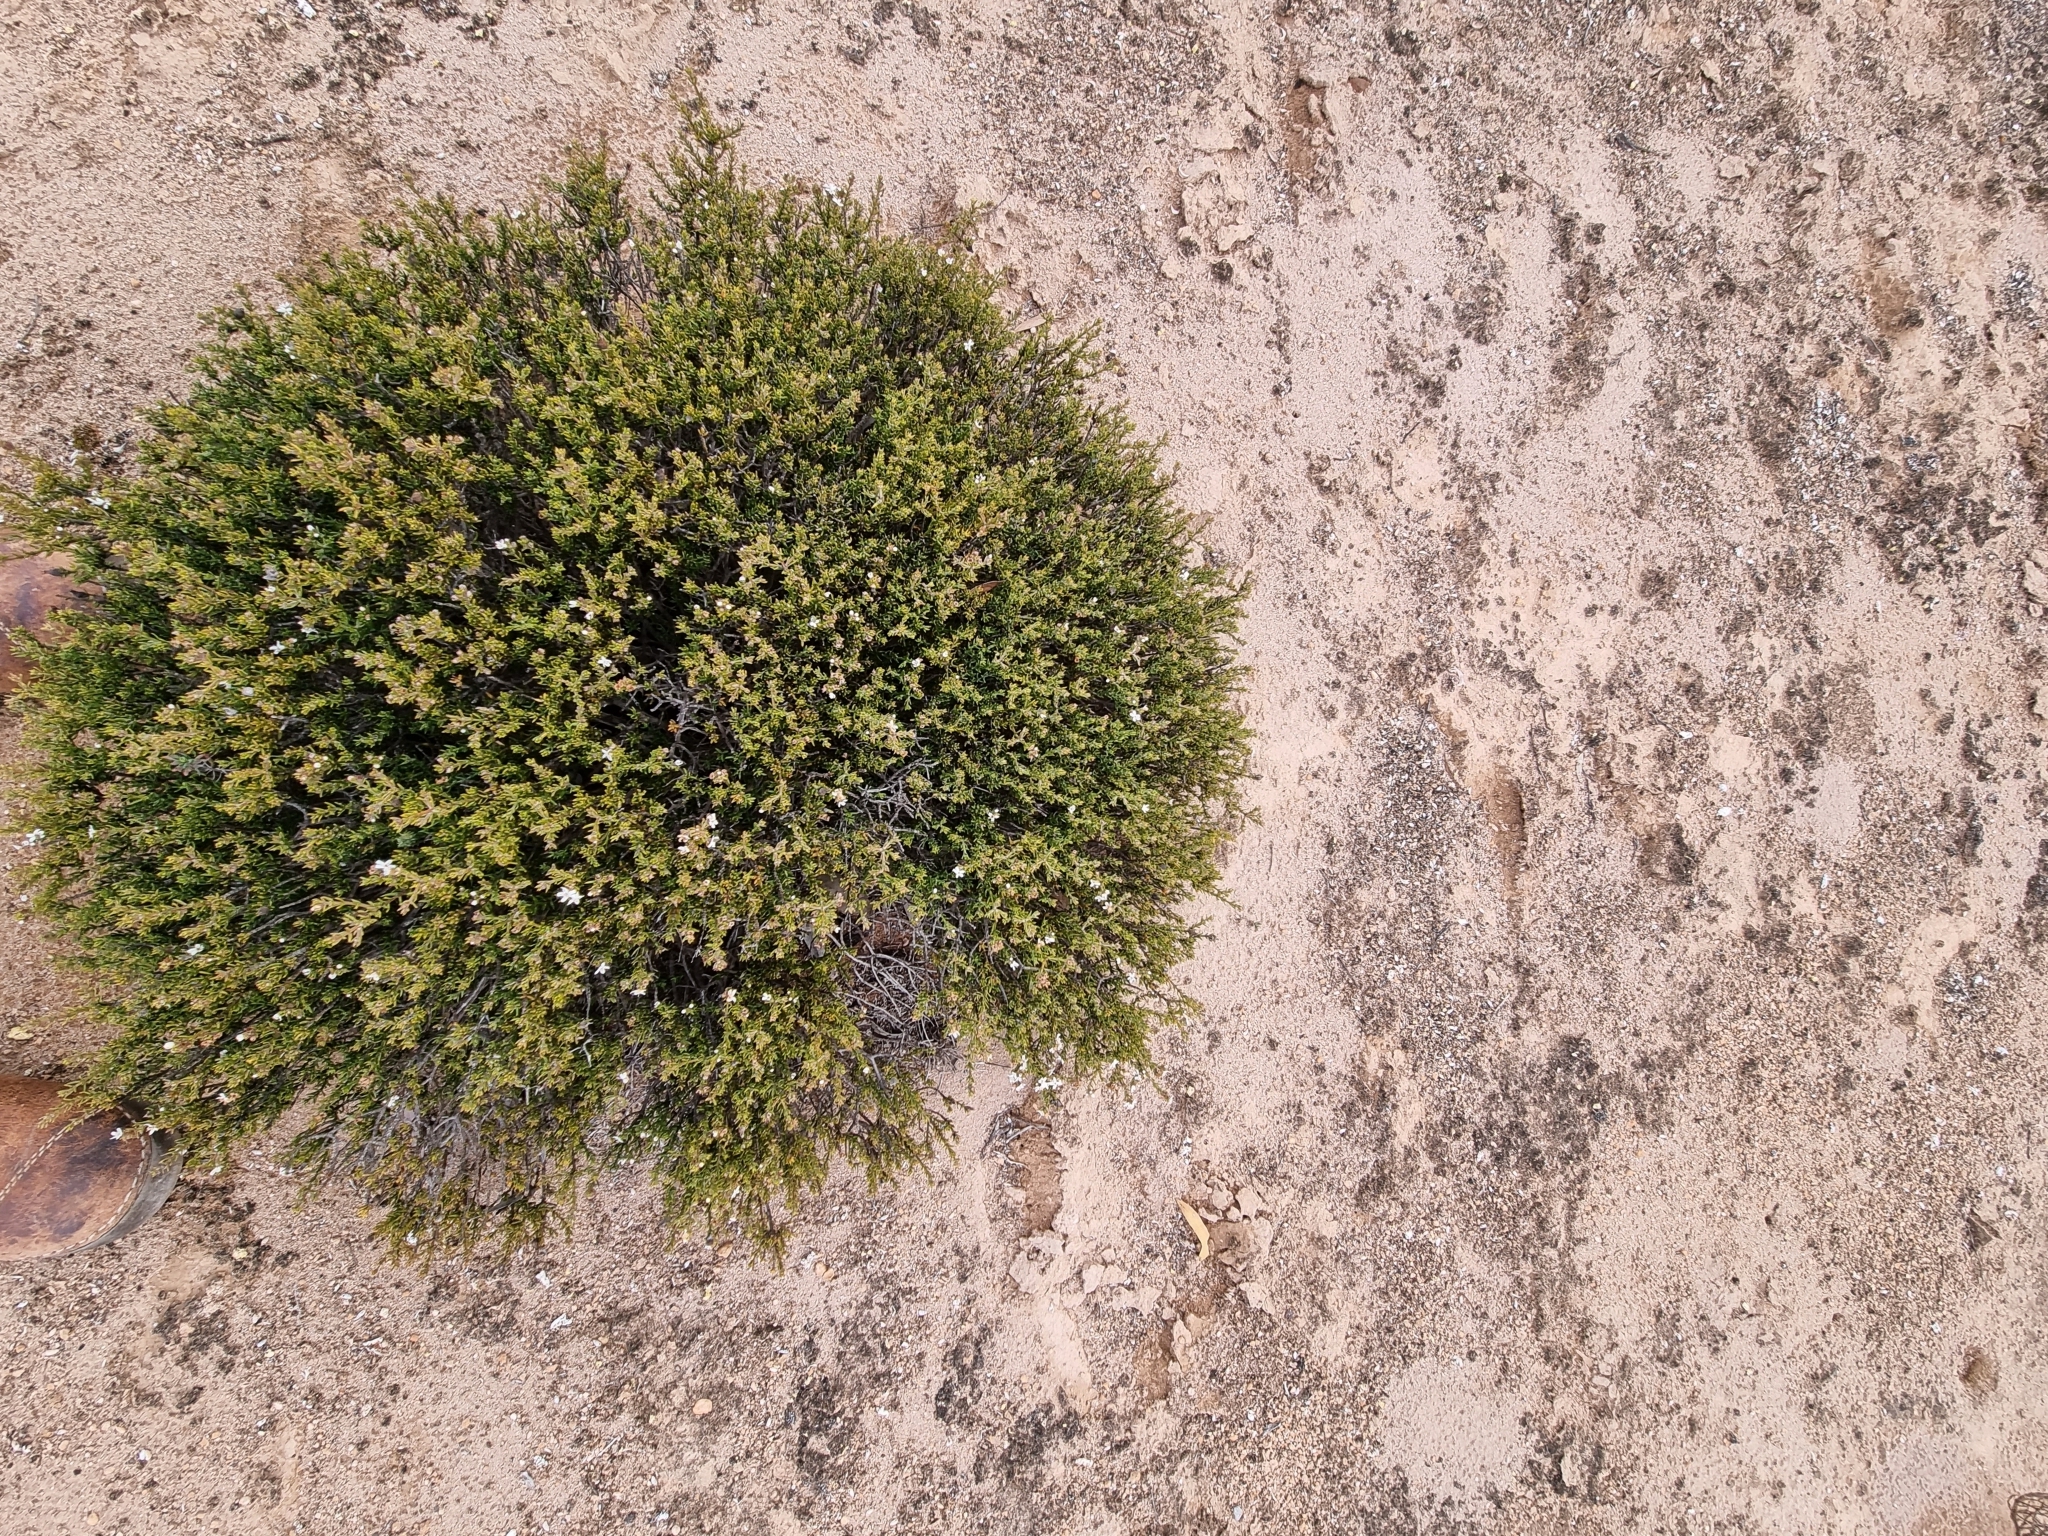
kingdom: Plantae
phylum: Tracheophyta
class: Magnoliopsida
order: Lamiales
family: Lamiaceae
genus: Westringia
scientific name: Westringia rigida
